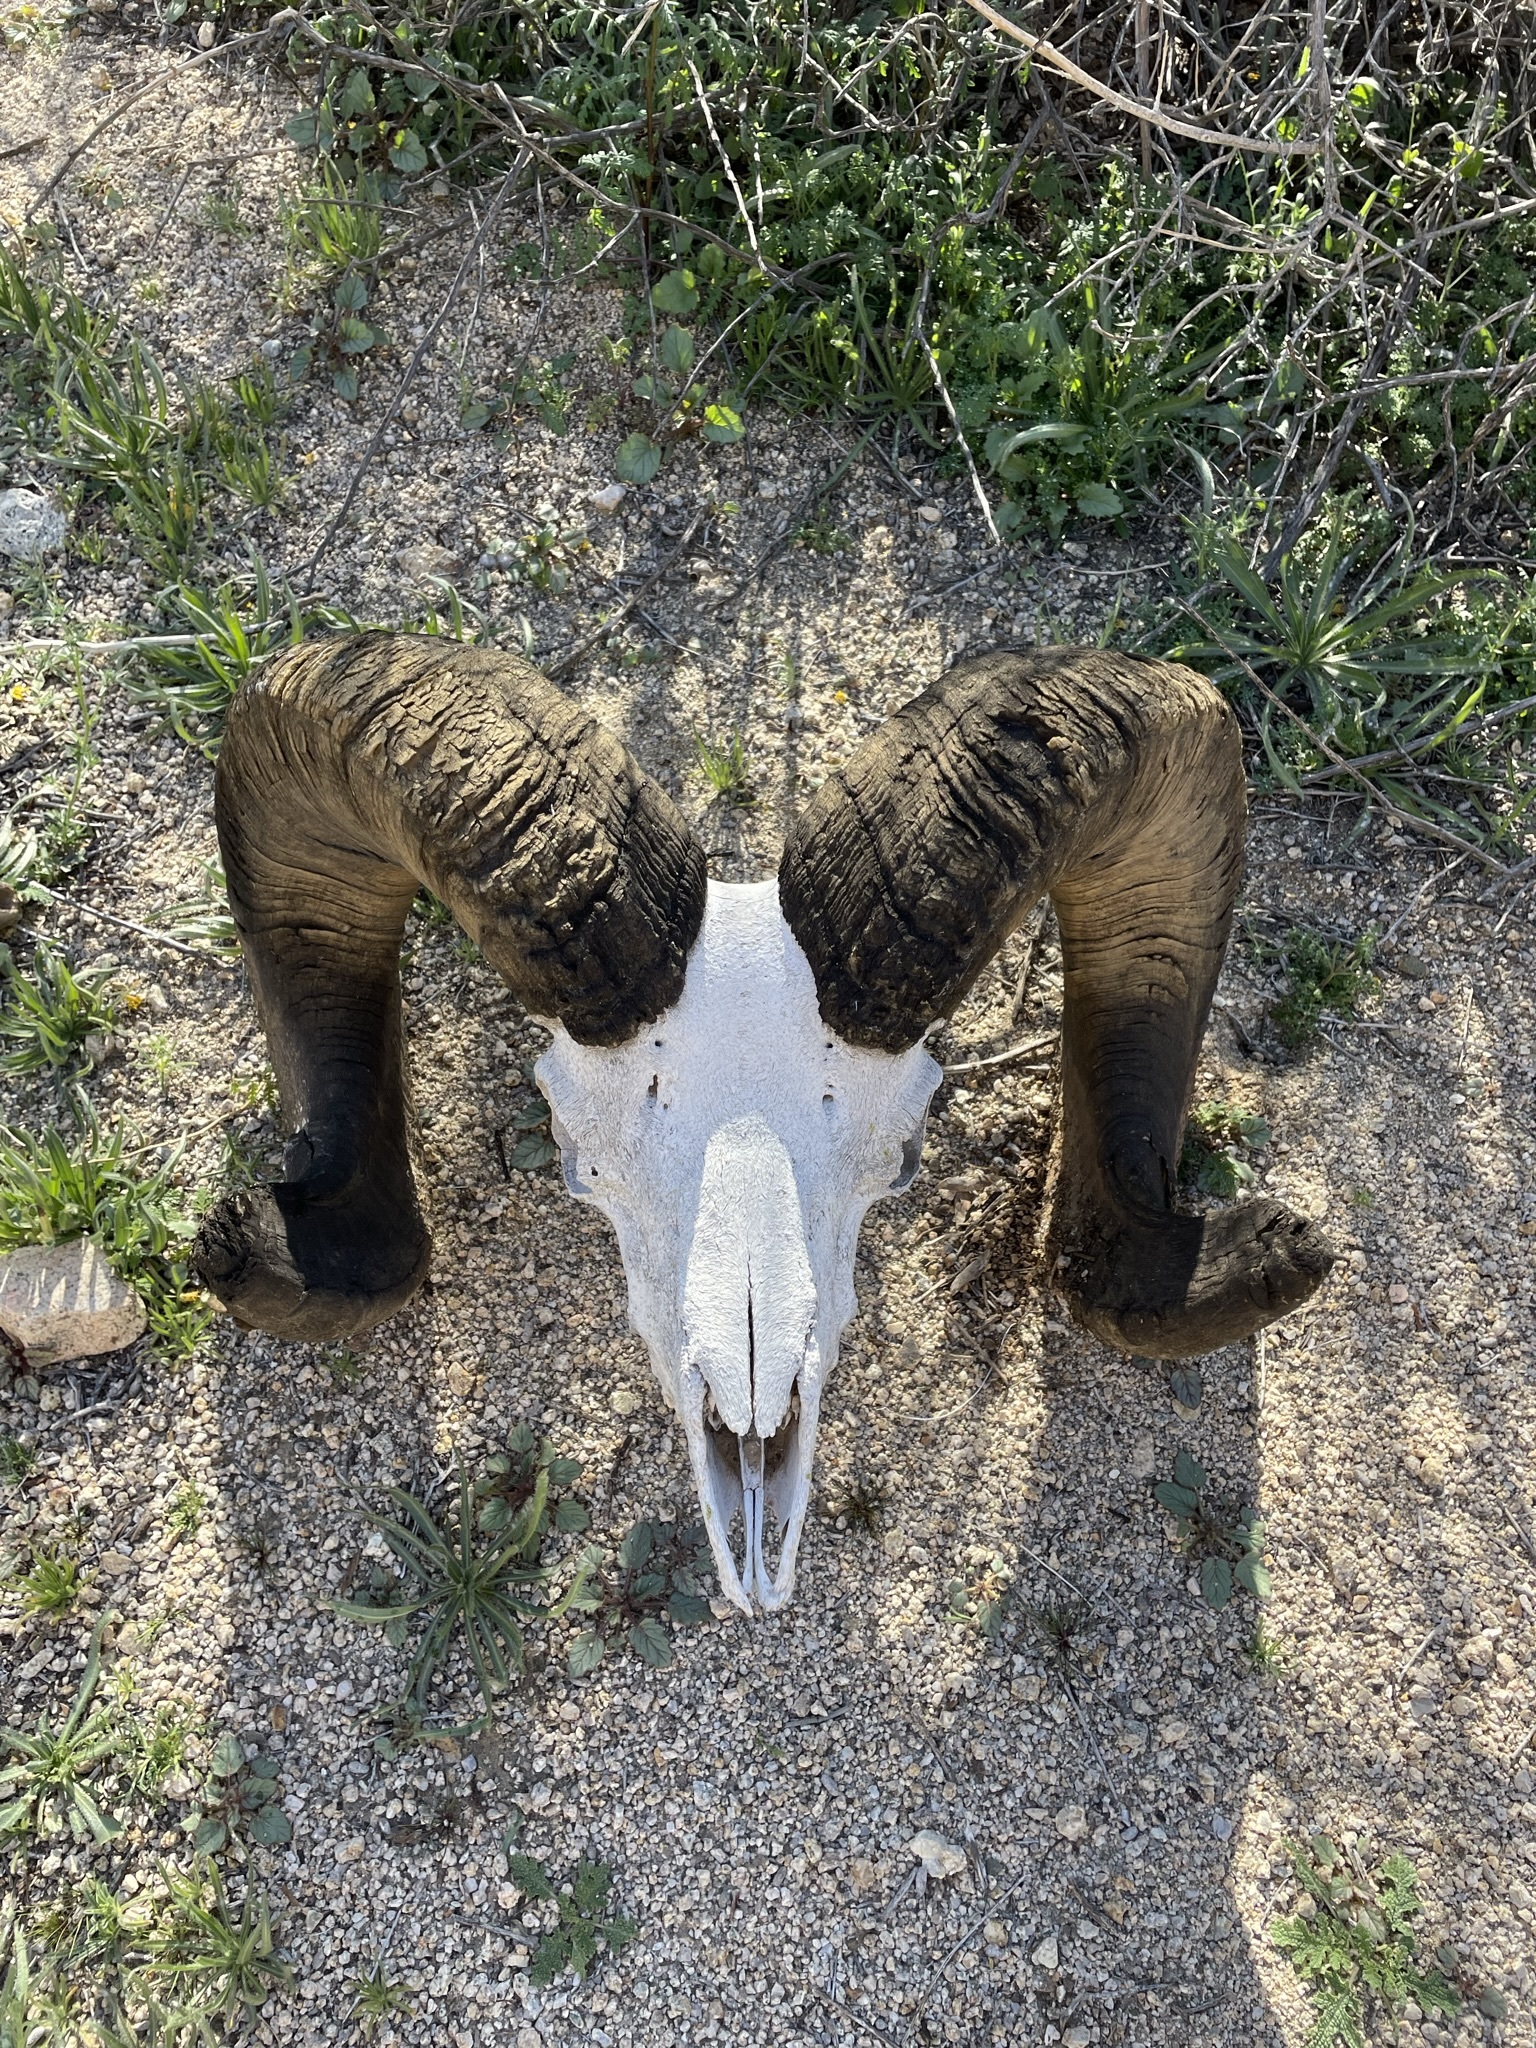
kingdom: Animalia
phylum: Chordata
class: Mammalia
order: Artiodactyla
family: Bovidae
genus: Ovis
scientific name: Ovis canadensis
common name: Bighorn sheep
